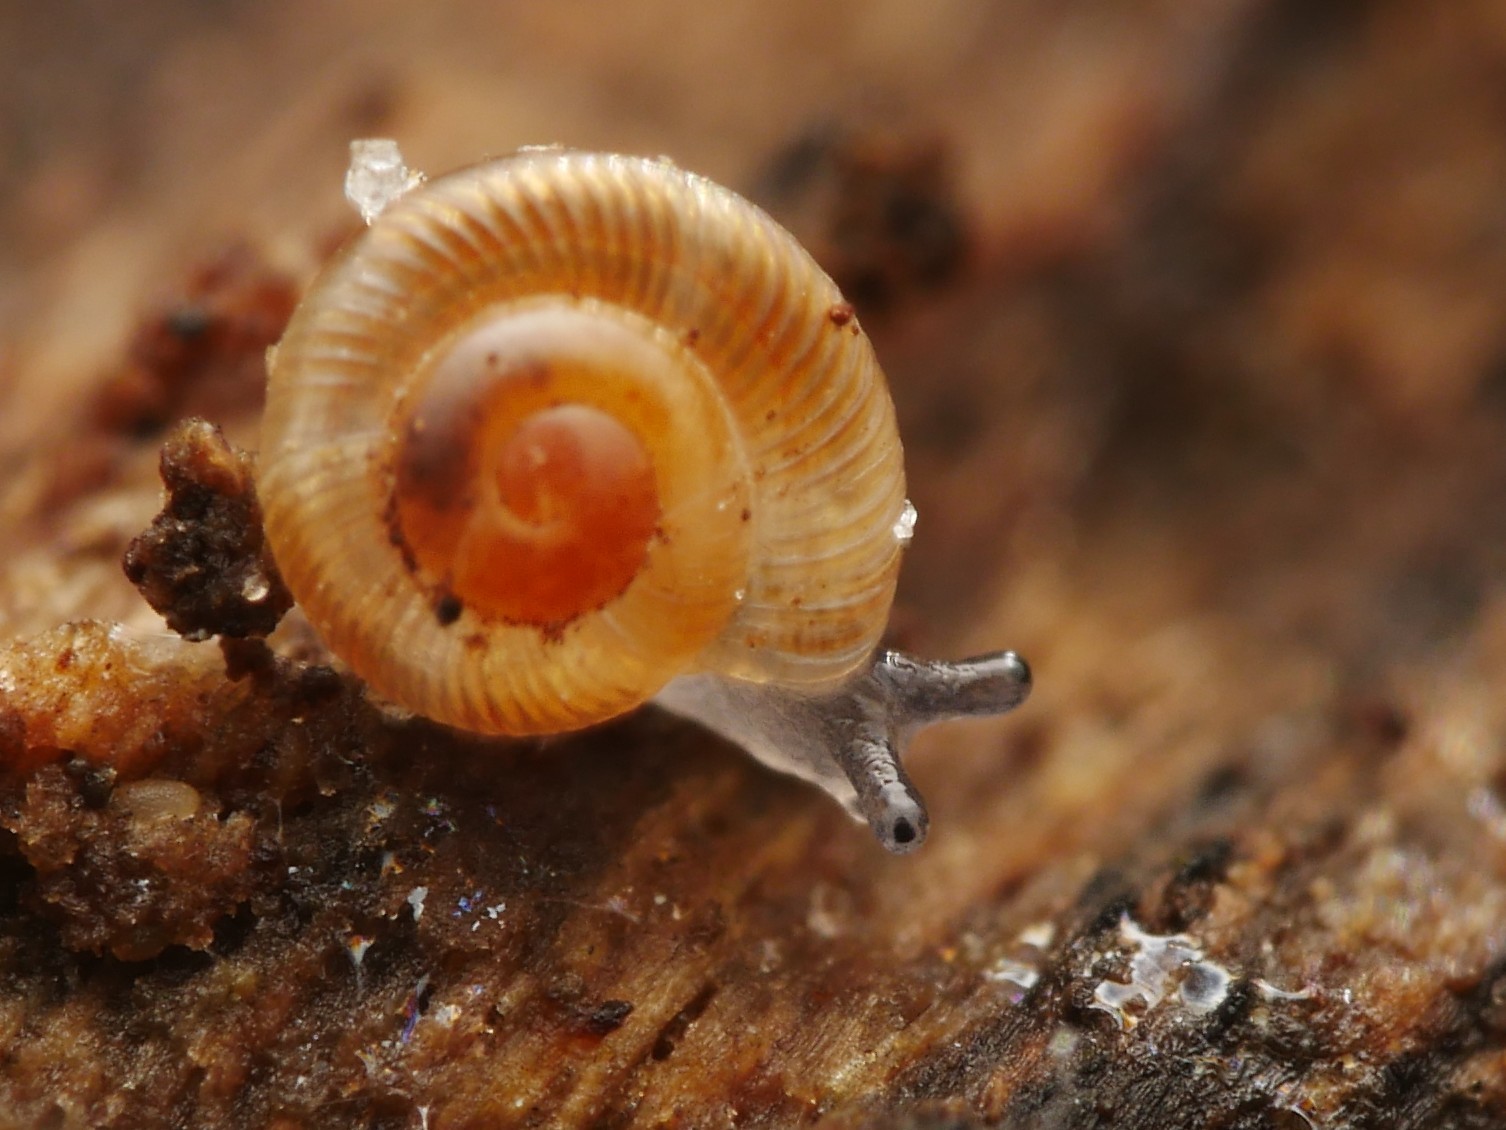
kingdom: Animalia
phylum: Mollusca
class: Gastropoda
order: Stylommatophora
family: Discidae
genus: Discus
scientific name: Discus rotundatus
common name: Rounded snail
